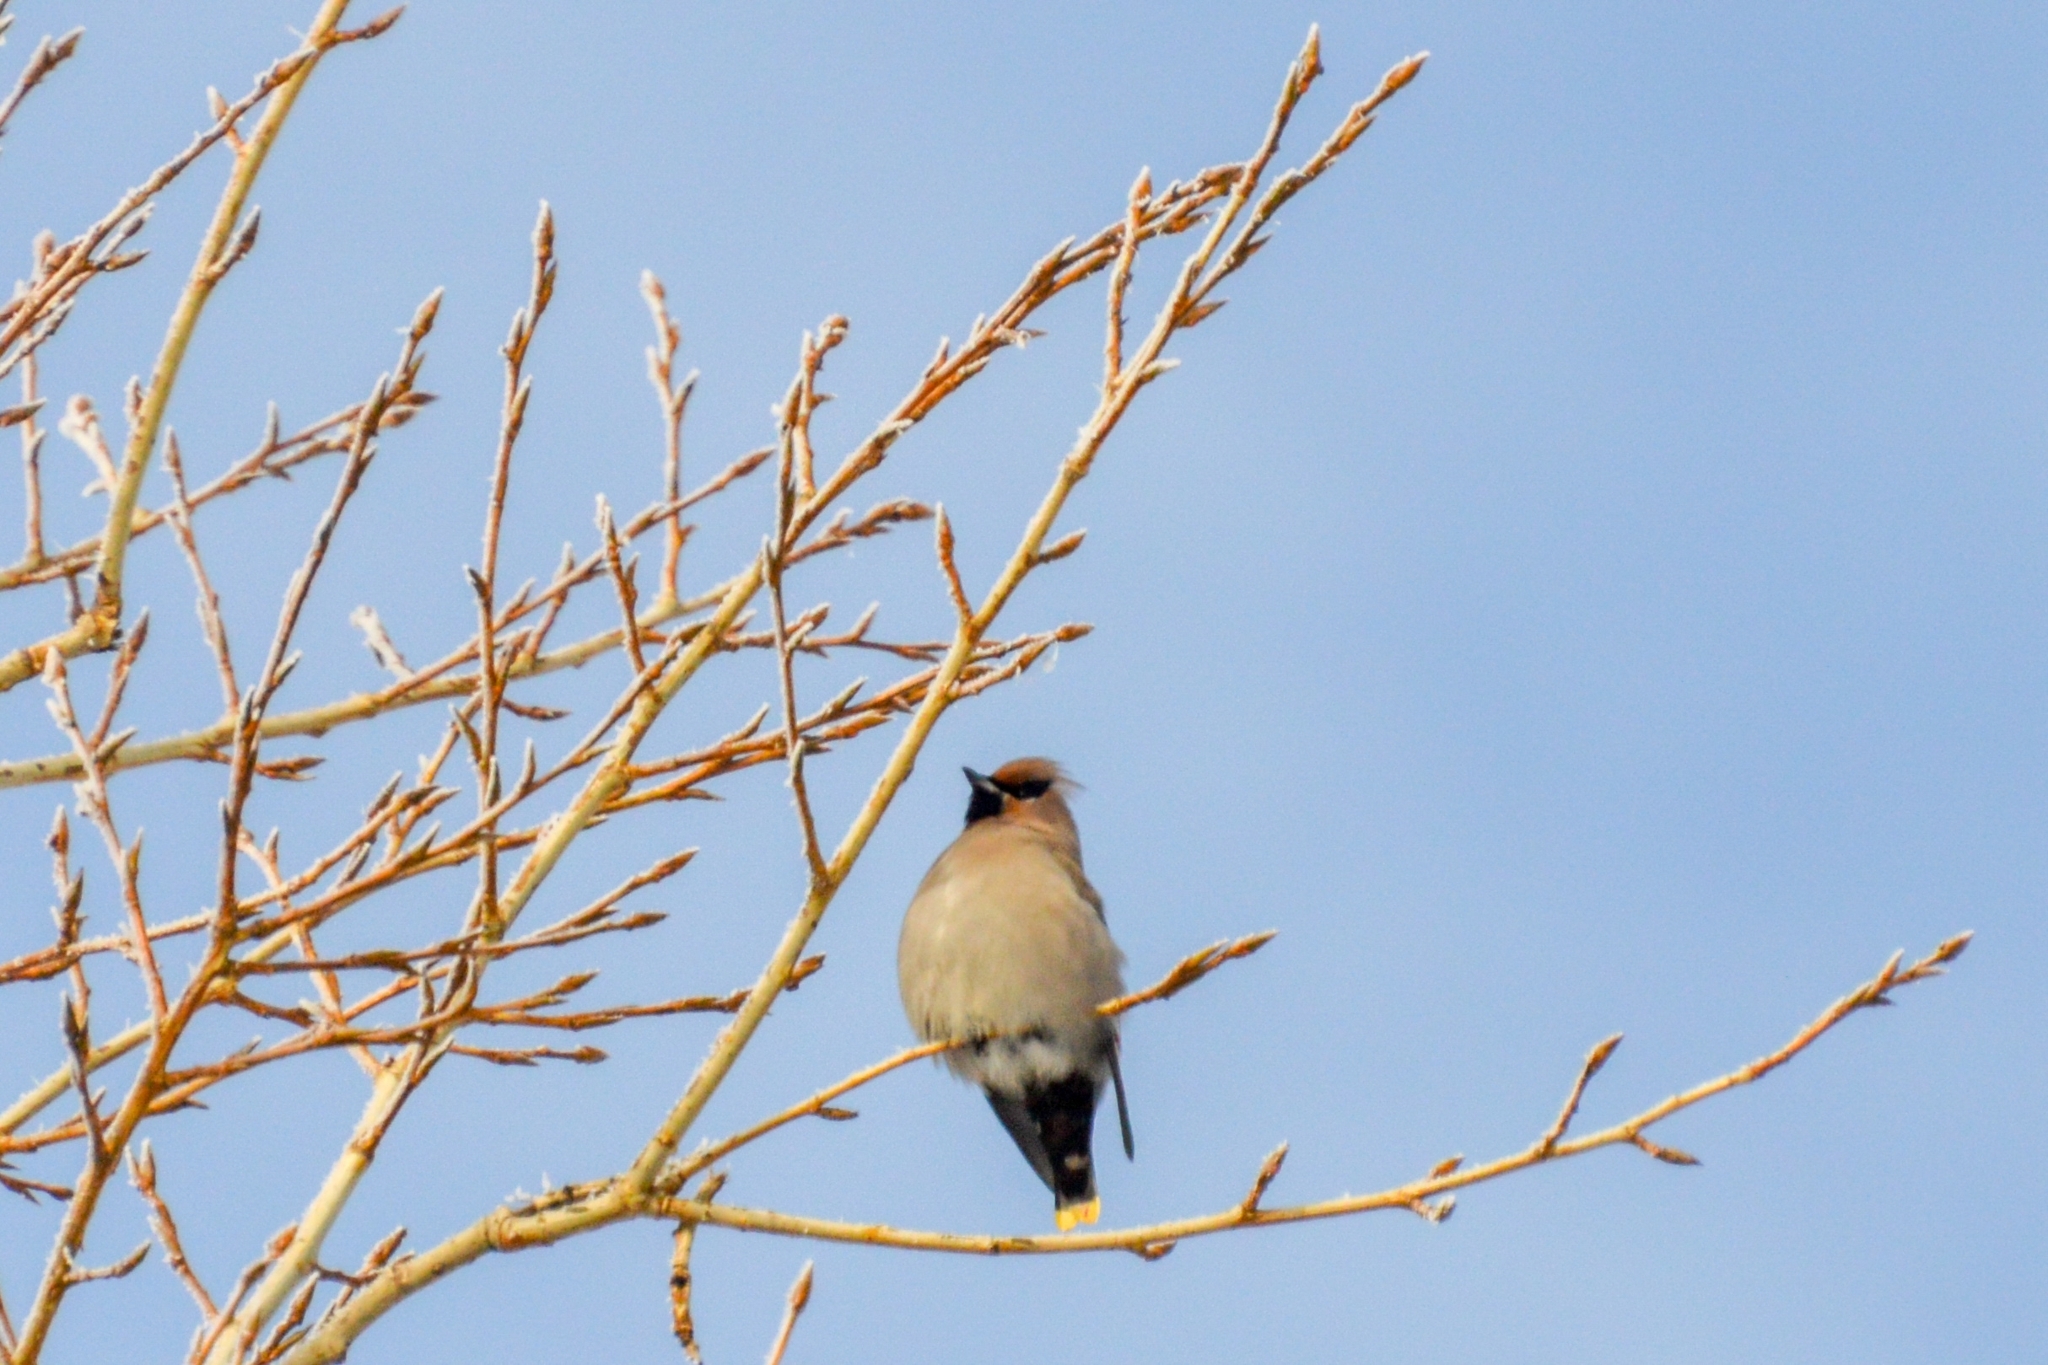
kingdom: Animalia
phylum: Chordata
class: Aves
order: Passeriformes
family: Bombycillidae
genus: Bombycilla
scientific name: Bombycilla garrulus
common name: Bohemian waxwing
